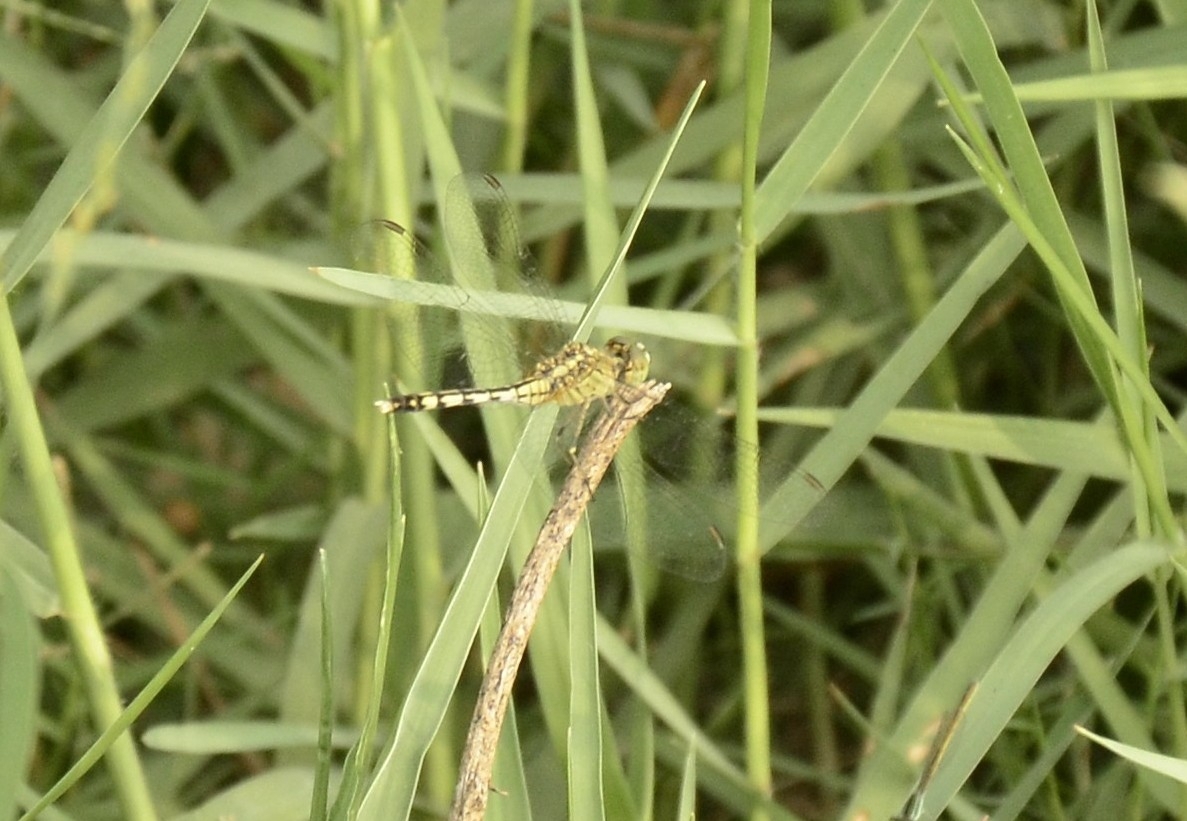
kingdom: Animalia
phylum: Arthropoda
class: Insecta
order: Odonata
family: Libellulidae
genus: Diplacodes
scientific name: Diplacodes trivialis
